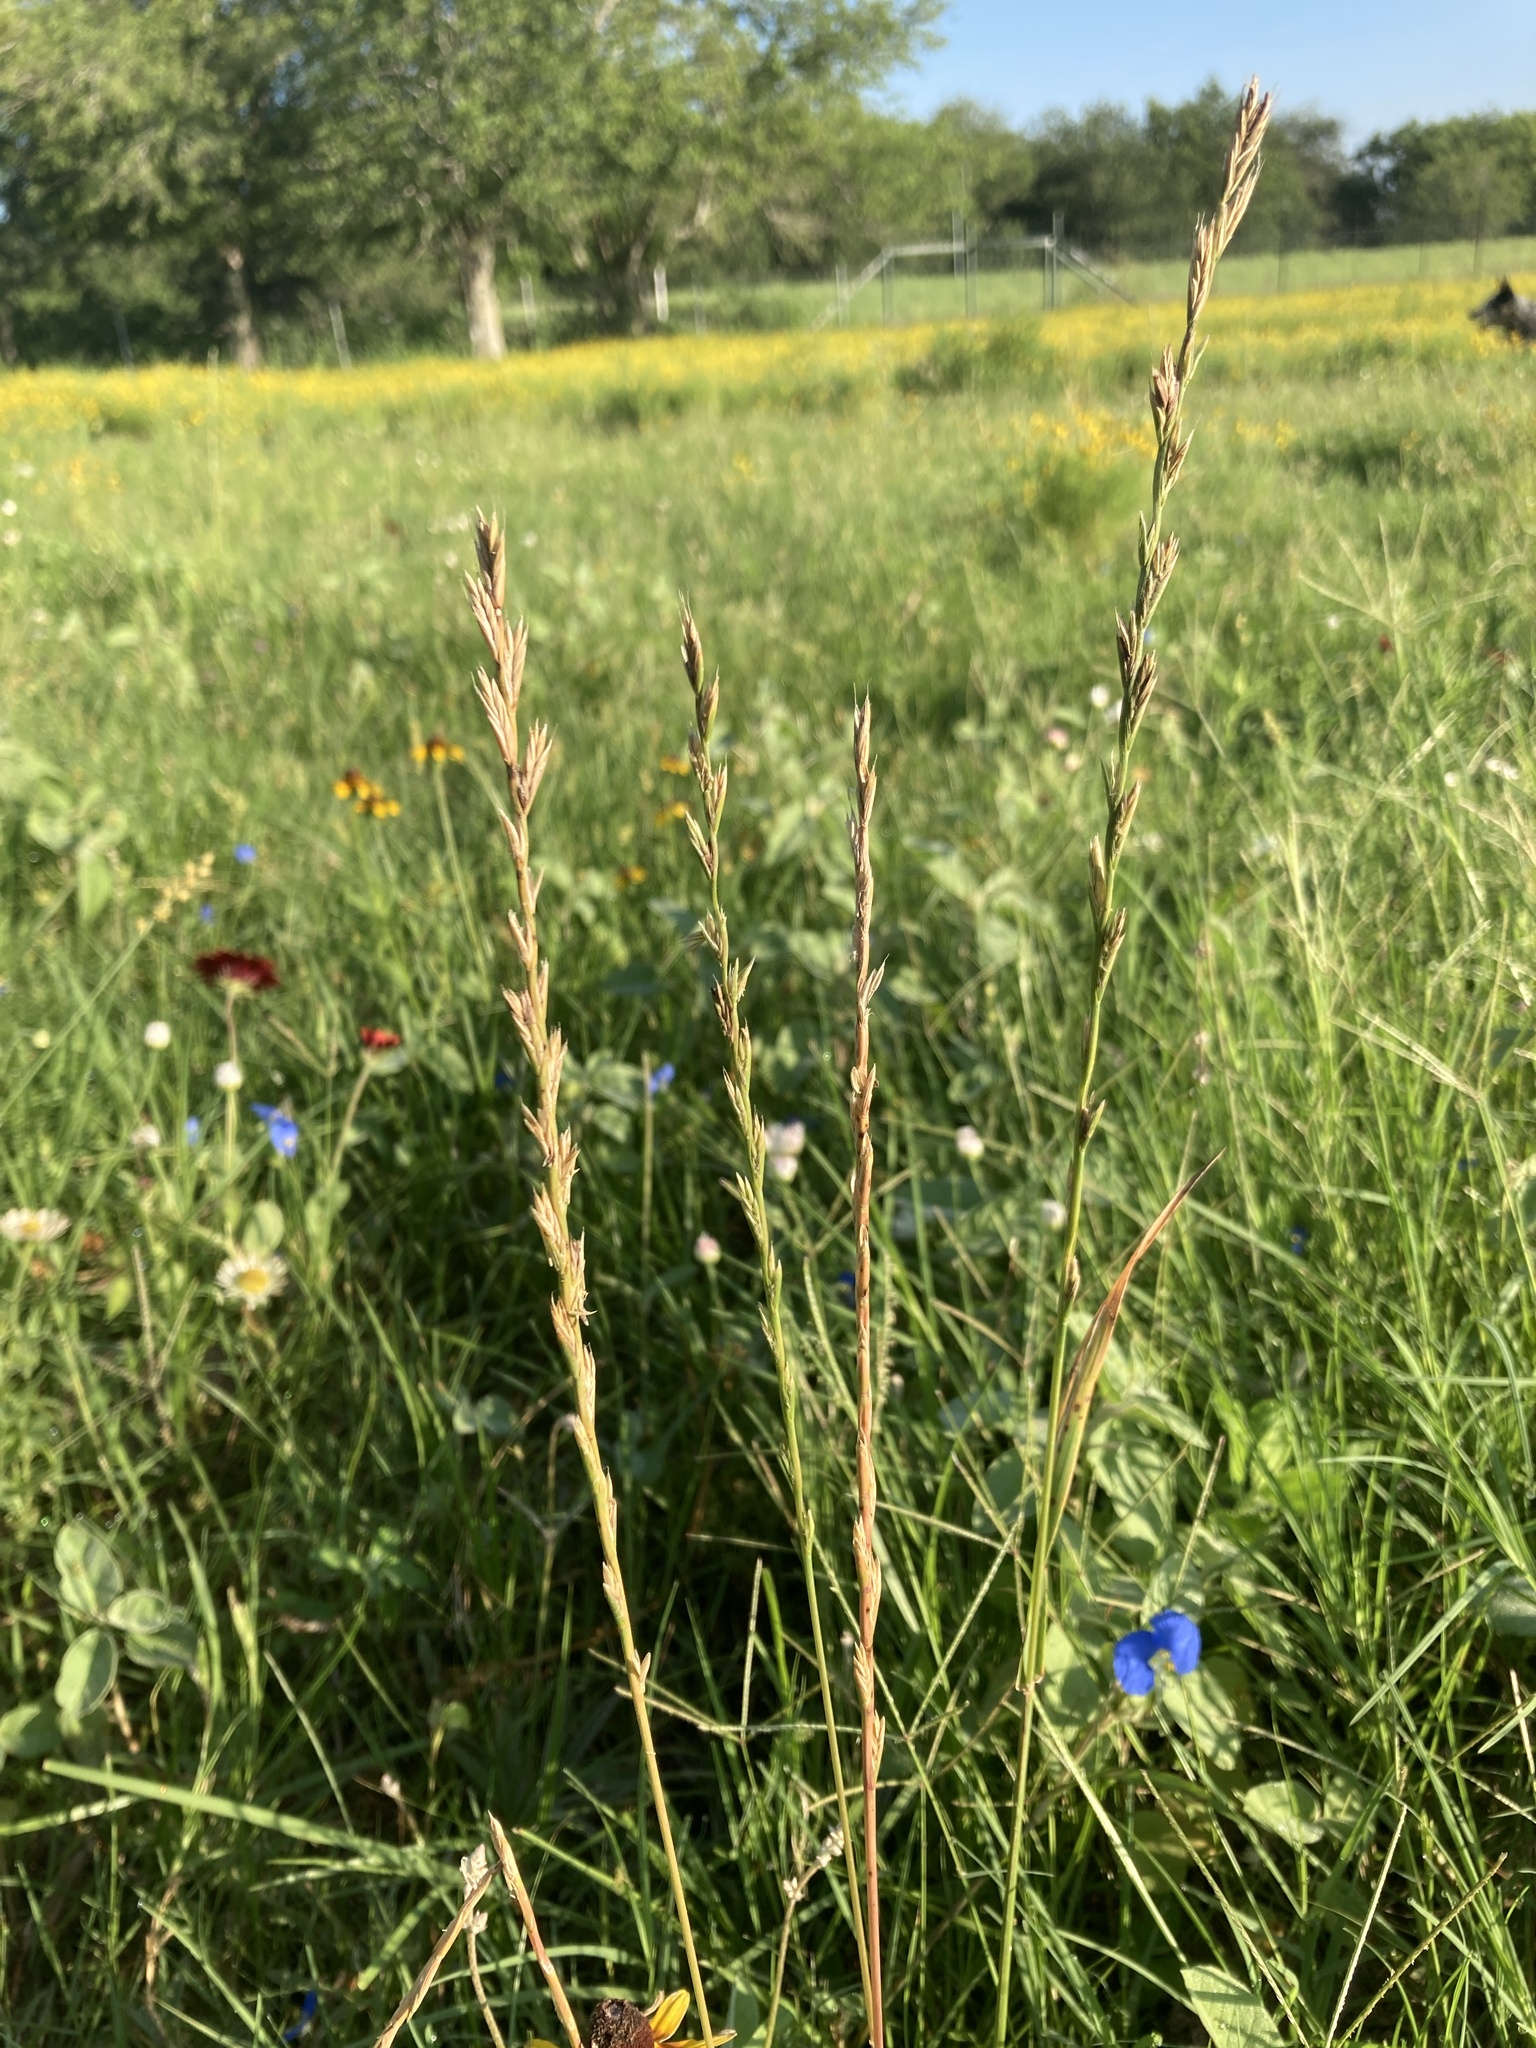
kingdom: Plantae
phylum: Tracheophyta
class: Liliopsida
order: Poales
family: Poaceae
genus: Lolium
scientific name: Lolium perenne
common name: Perennial ryegrass
